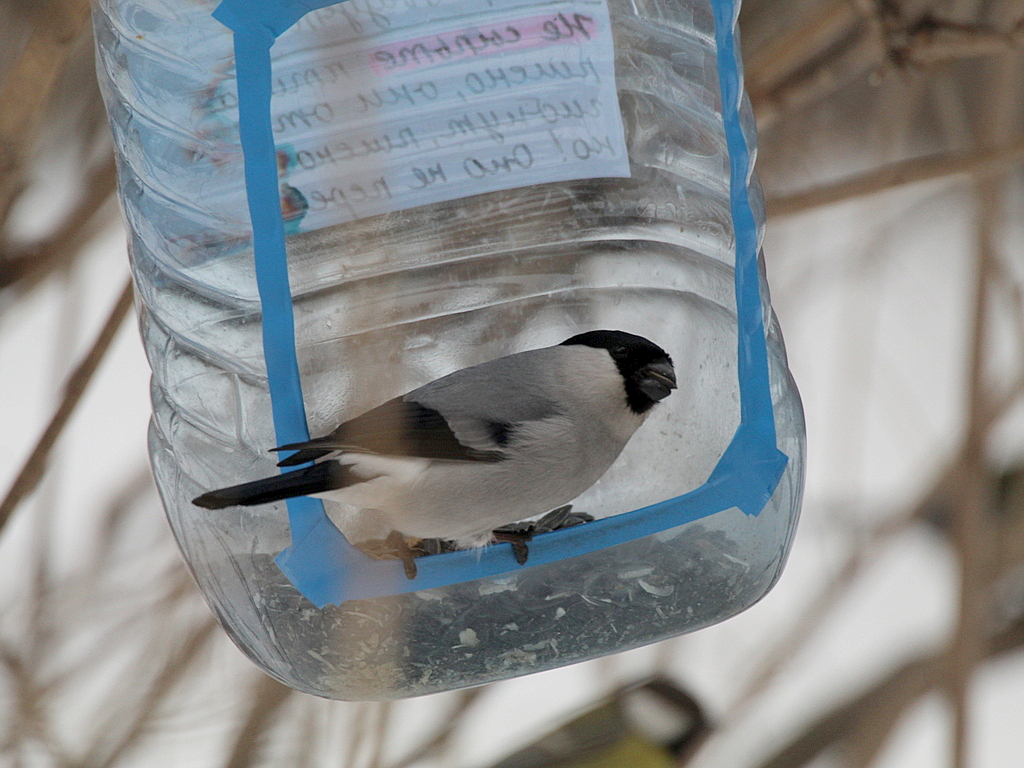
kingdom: Animalia
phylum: Chordata
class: Aves
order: Passeriformes
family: Fringillidae
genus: Pyrrhula
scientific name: Pyrrhula pyrrhula
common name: Eurasian bullfinch
